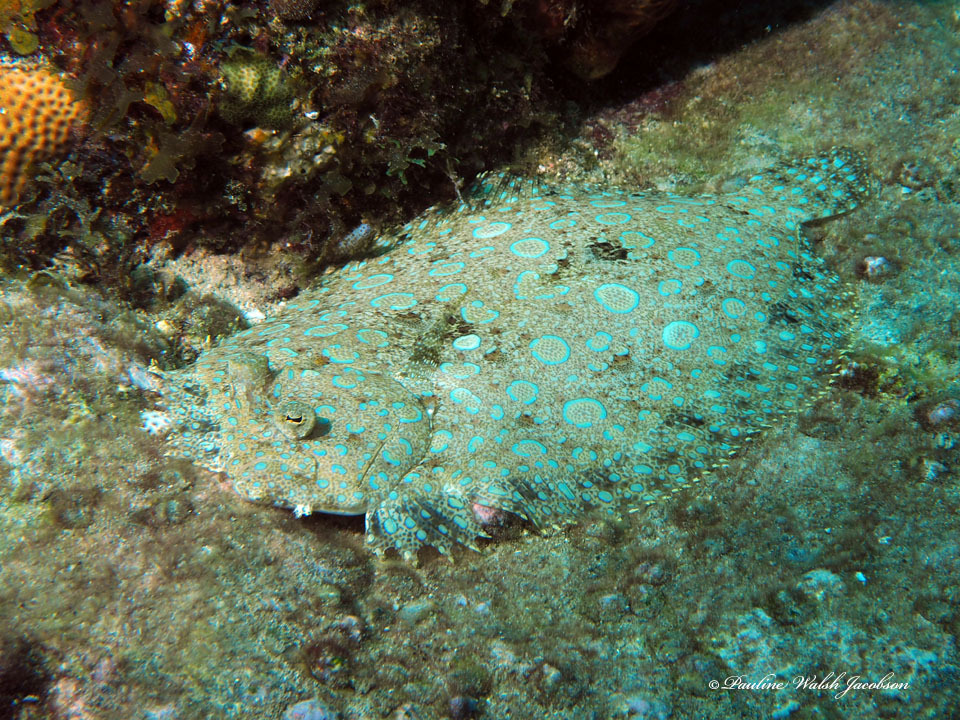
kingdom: Animalia
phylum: Chordata
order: Pleuronectiformes
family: Bothidae
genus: Bothus
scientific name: Bothus lunatus
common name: Peacock flounder
